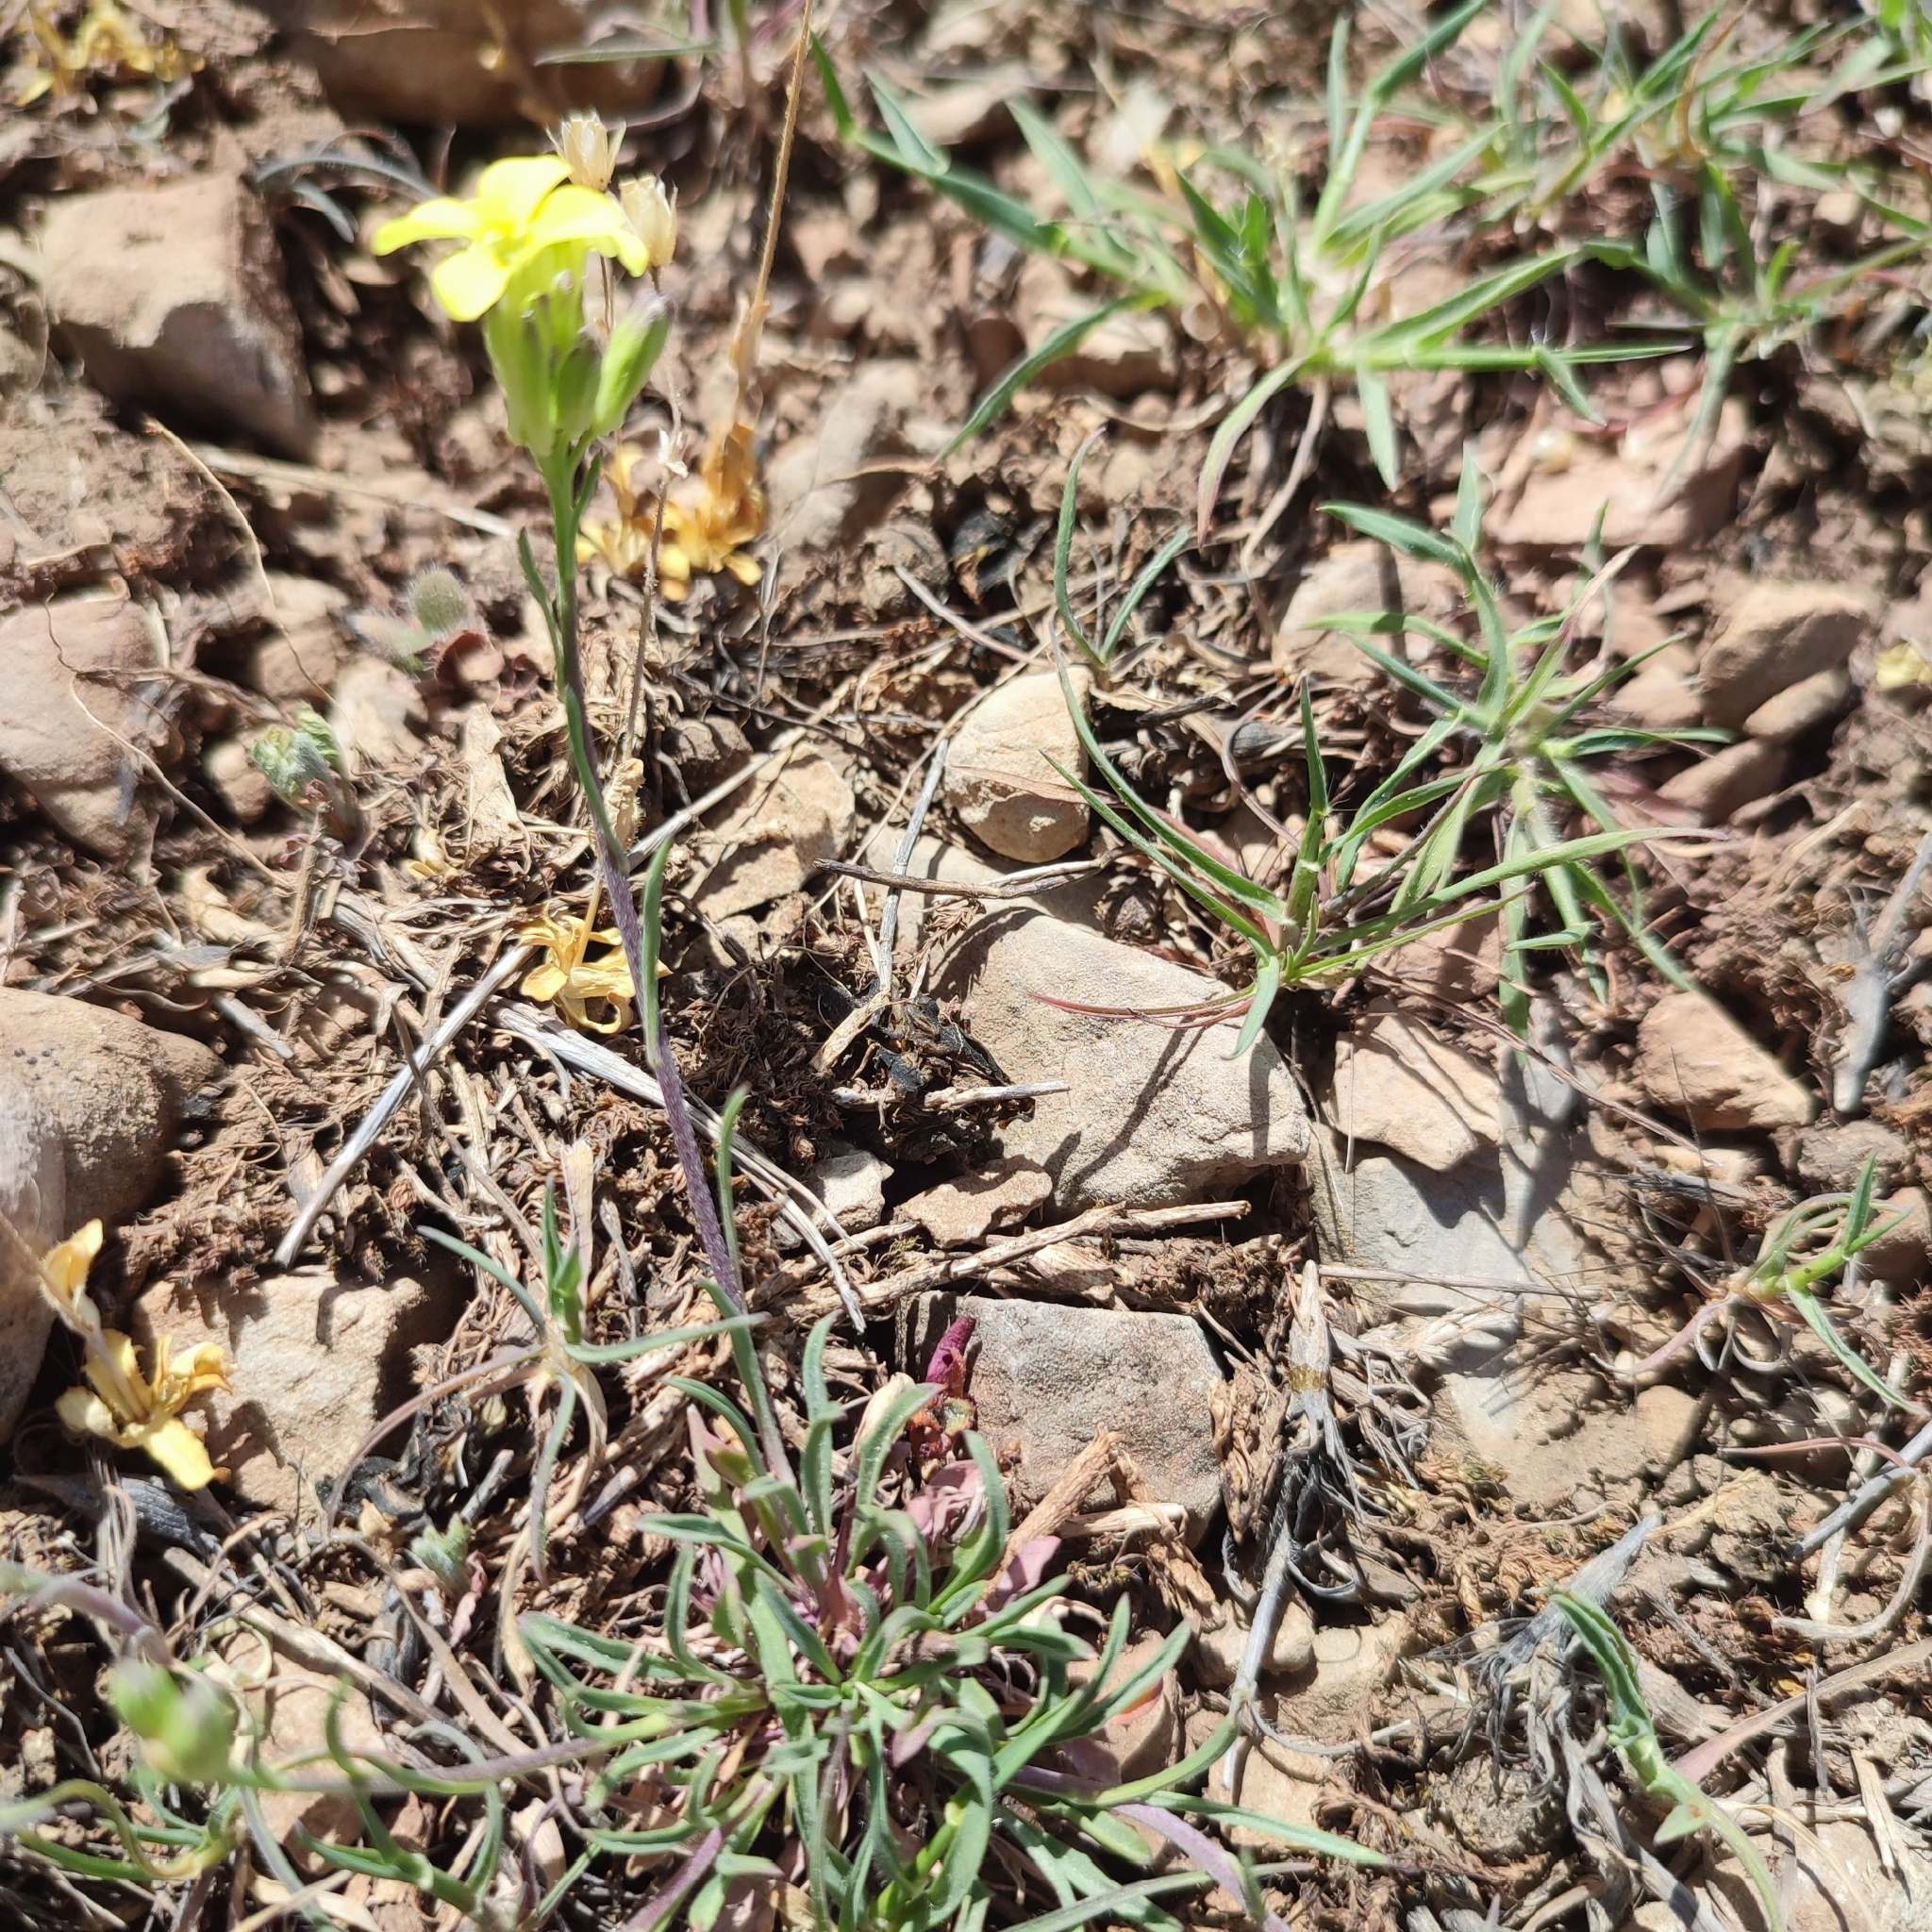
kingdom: Plantae
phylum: Tracheophyta
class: Magnoliopsida
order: Brassicales
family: Brassicaceae
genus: Erysimum
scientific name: Erysimum riphaeanum
